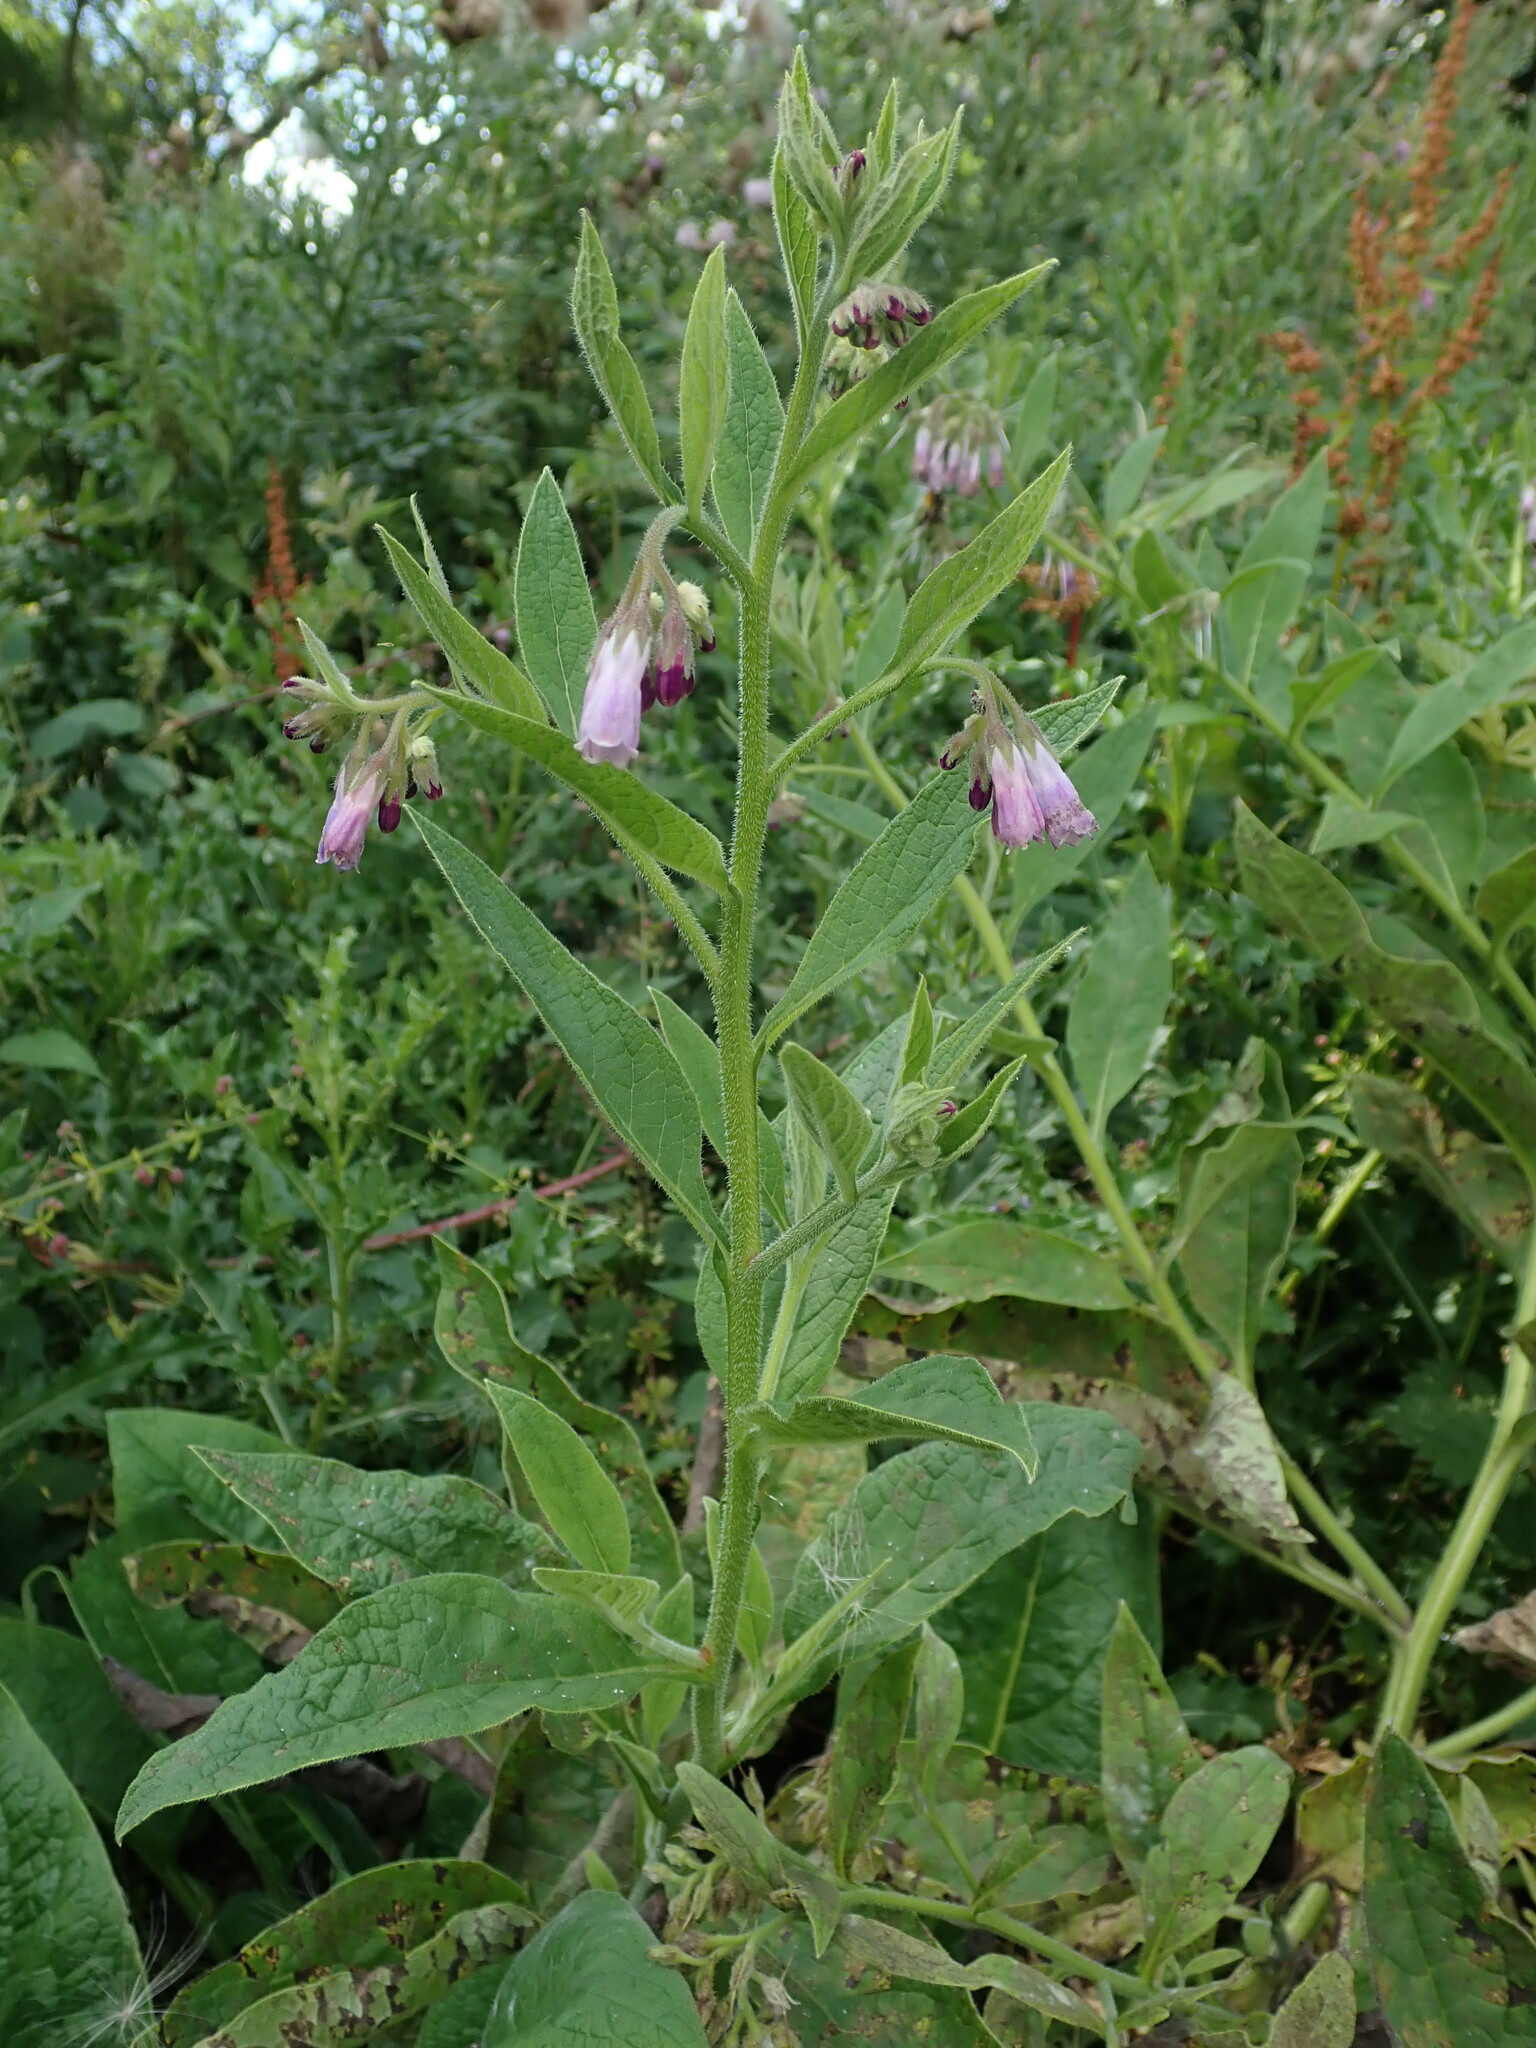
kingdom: Plantae
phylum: Tracheophyta
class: Magnoliopsida
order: Boraginales
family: Boraginaceae
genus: Symphytum
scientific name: Symphytum uplandicum
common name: Russian comfrey
